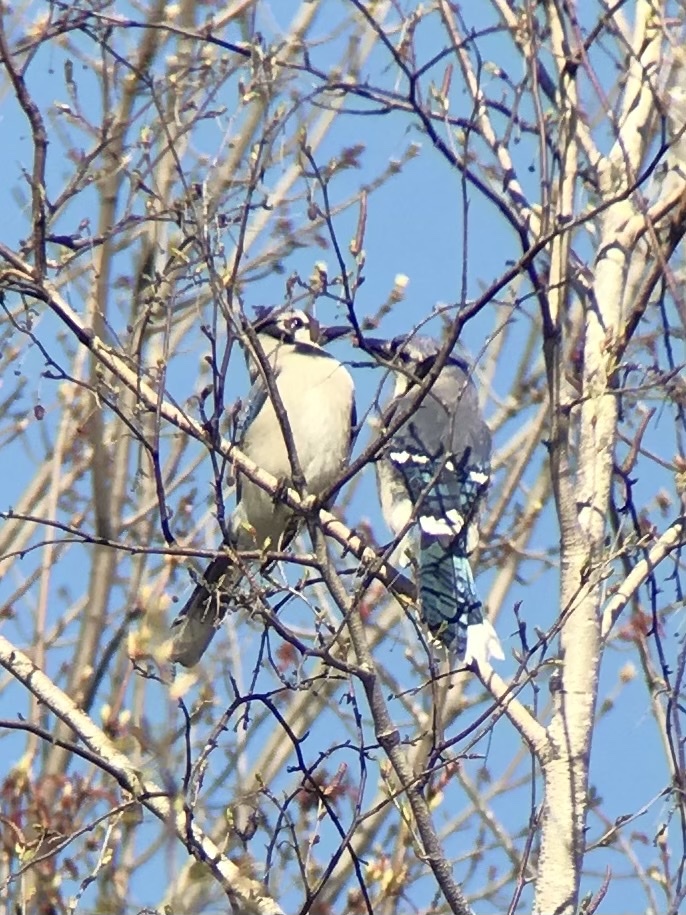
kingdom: Animalia
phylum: Chordata
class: Aves
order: Passeriformes
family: Corvidae
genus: Cyanocitta
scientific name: Cyanocitta cristata
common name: Blue jay
